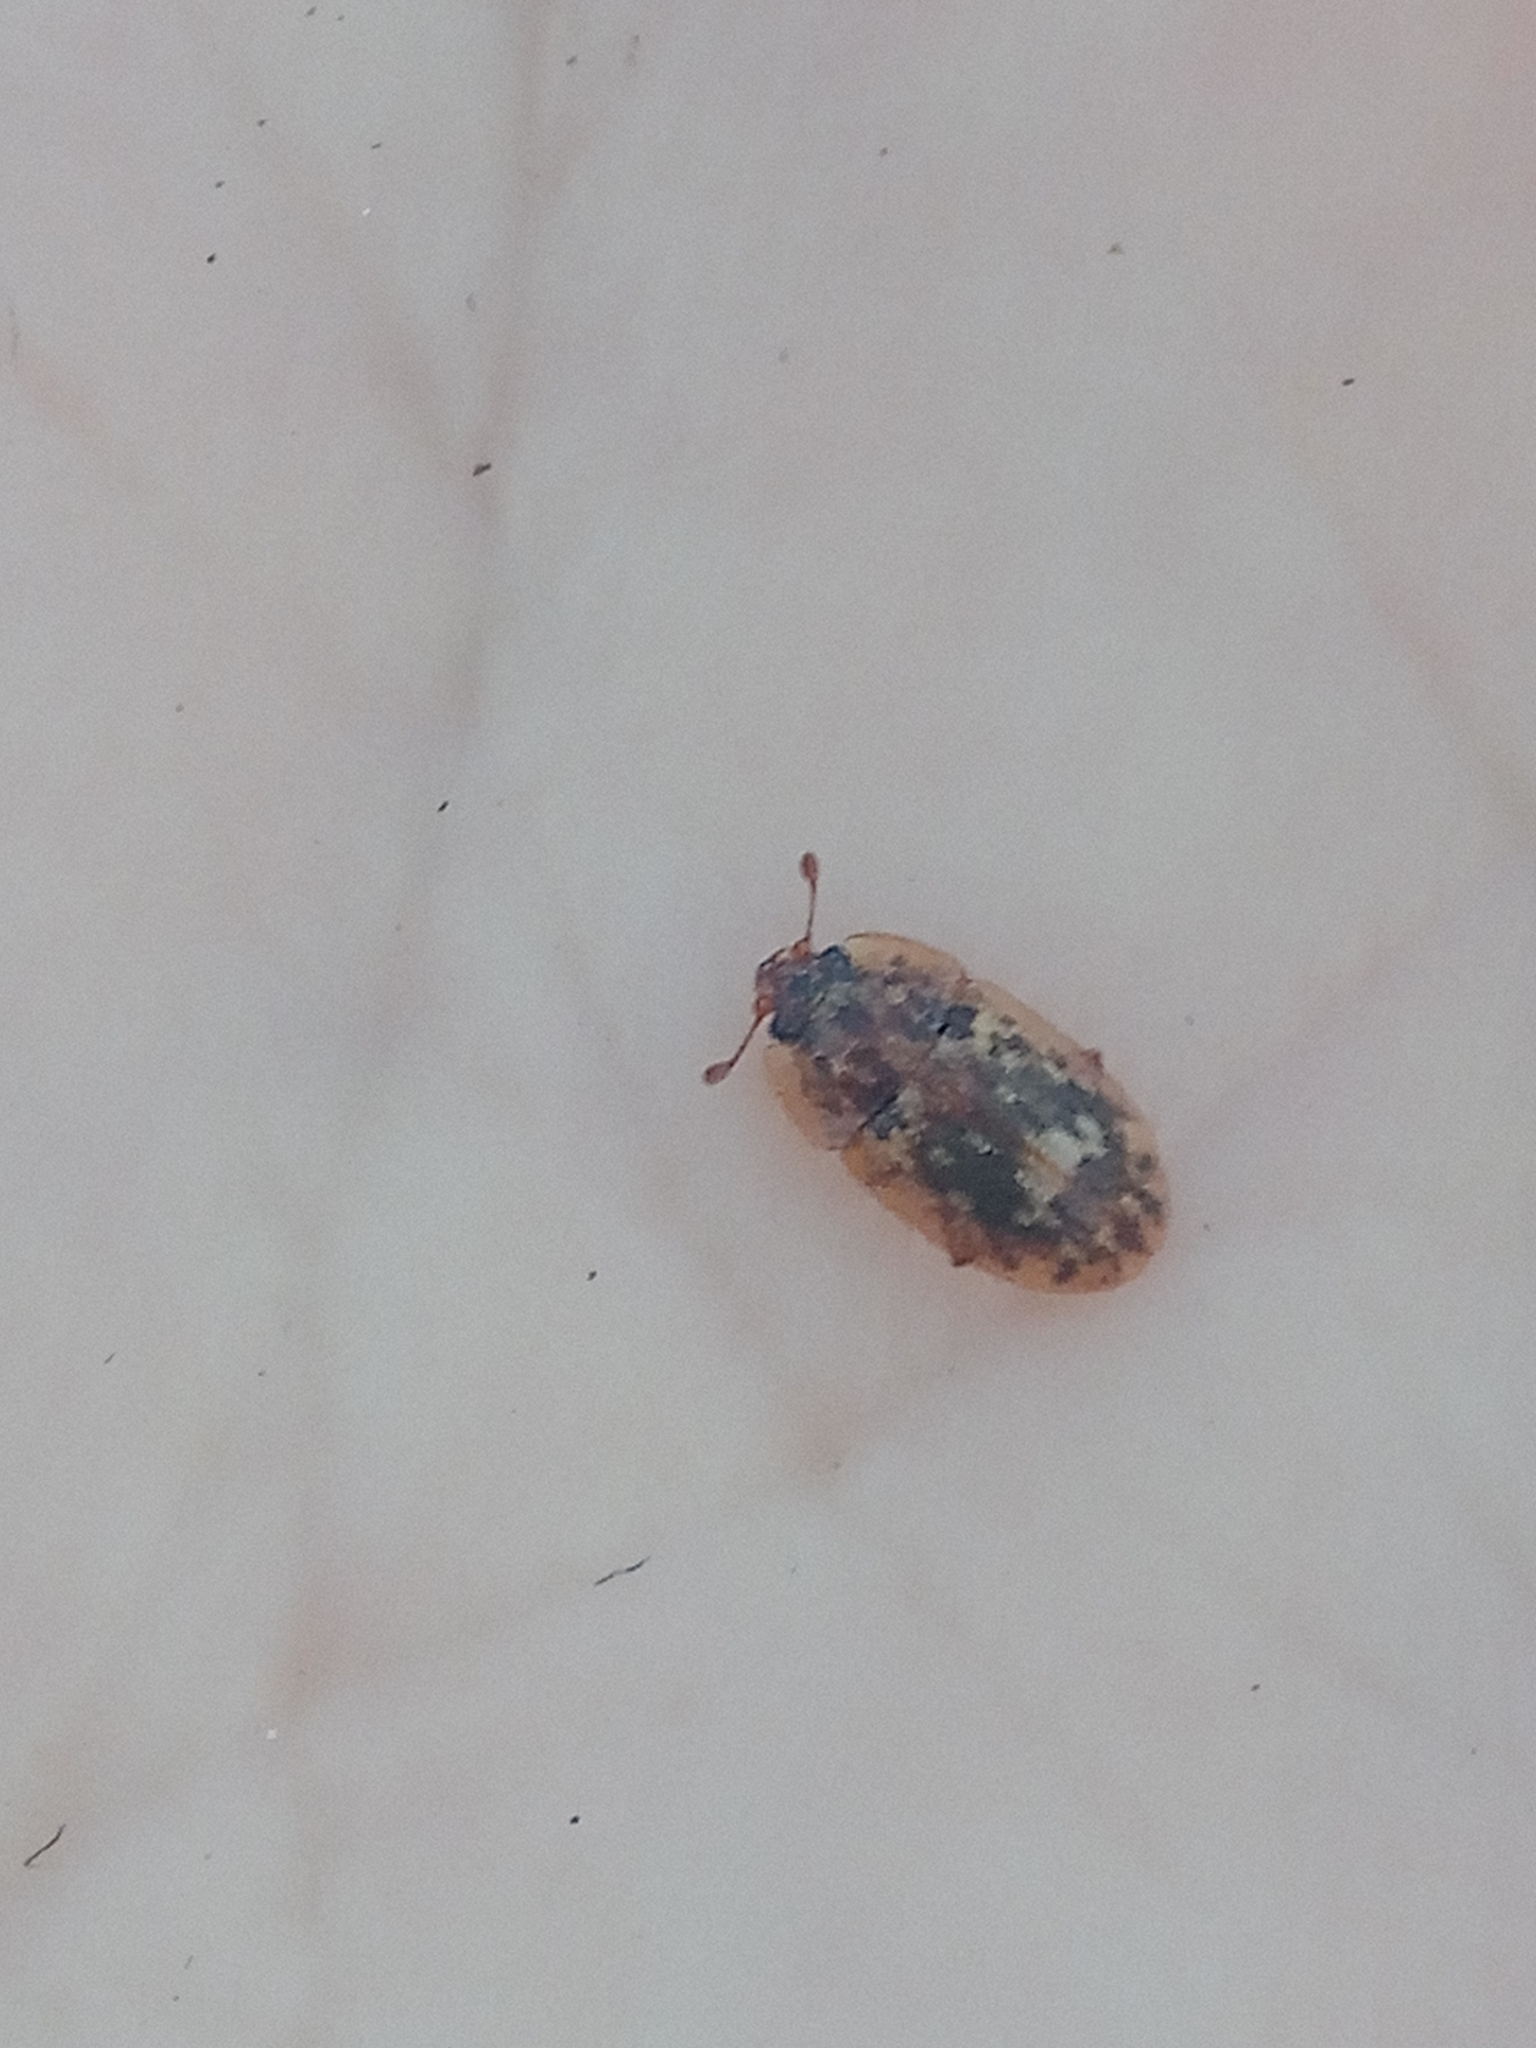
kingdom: Animalia
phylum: Arthropoda
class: Insecta
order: Coleoptera
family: Nitidulidae
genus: Soronia
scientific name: Soronia grisea
